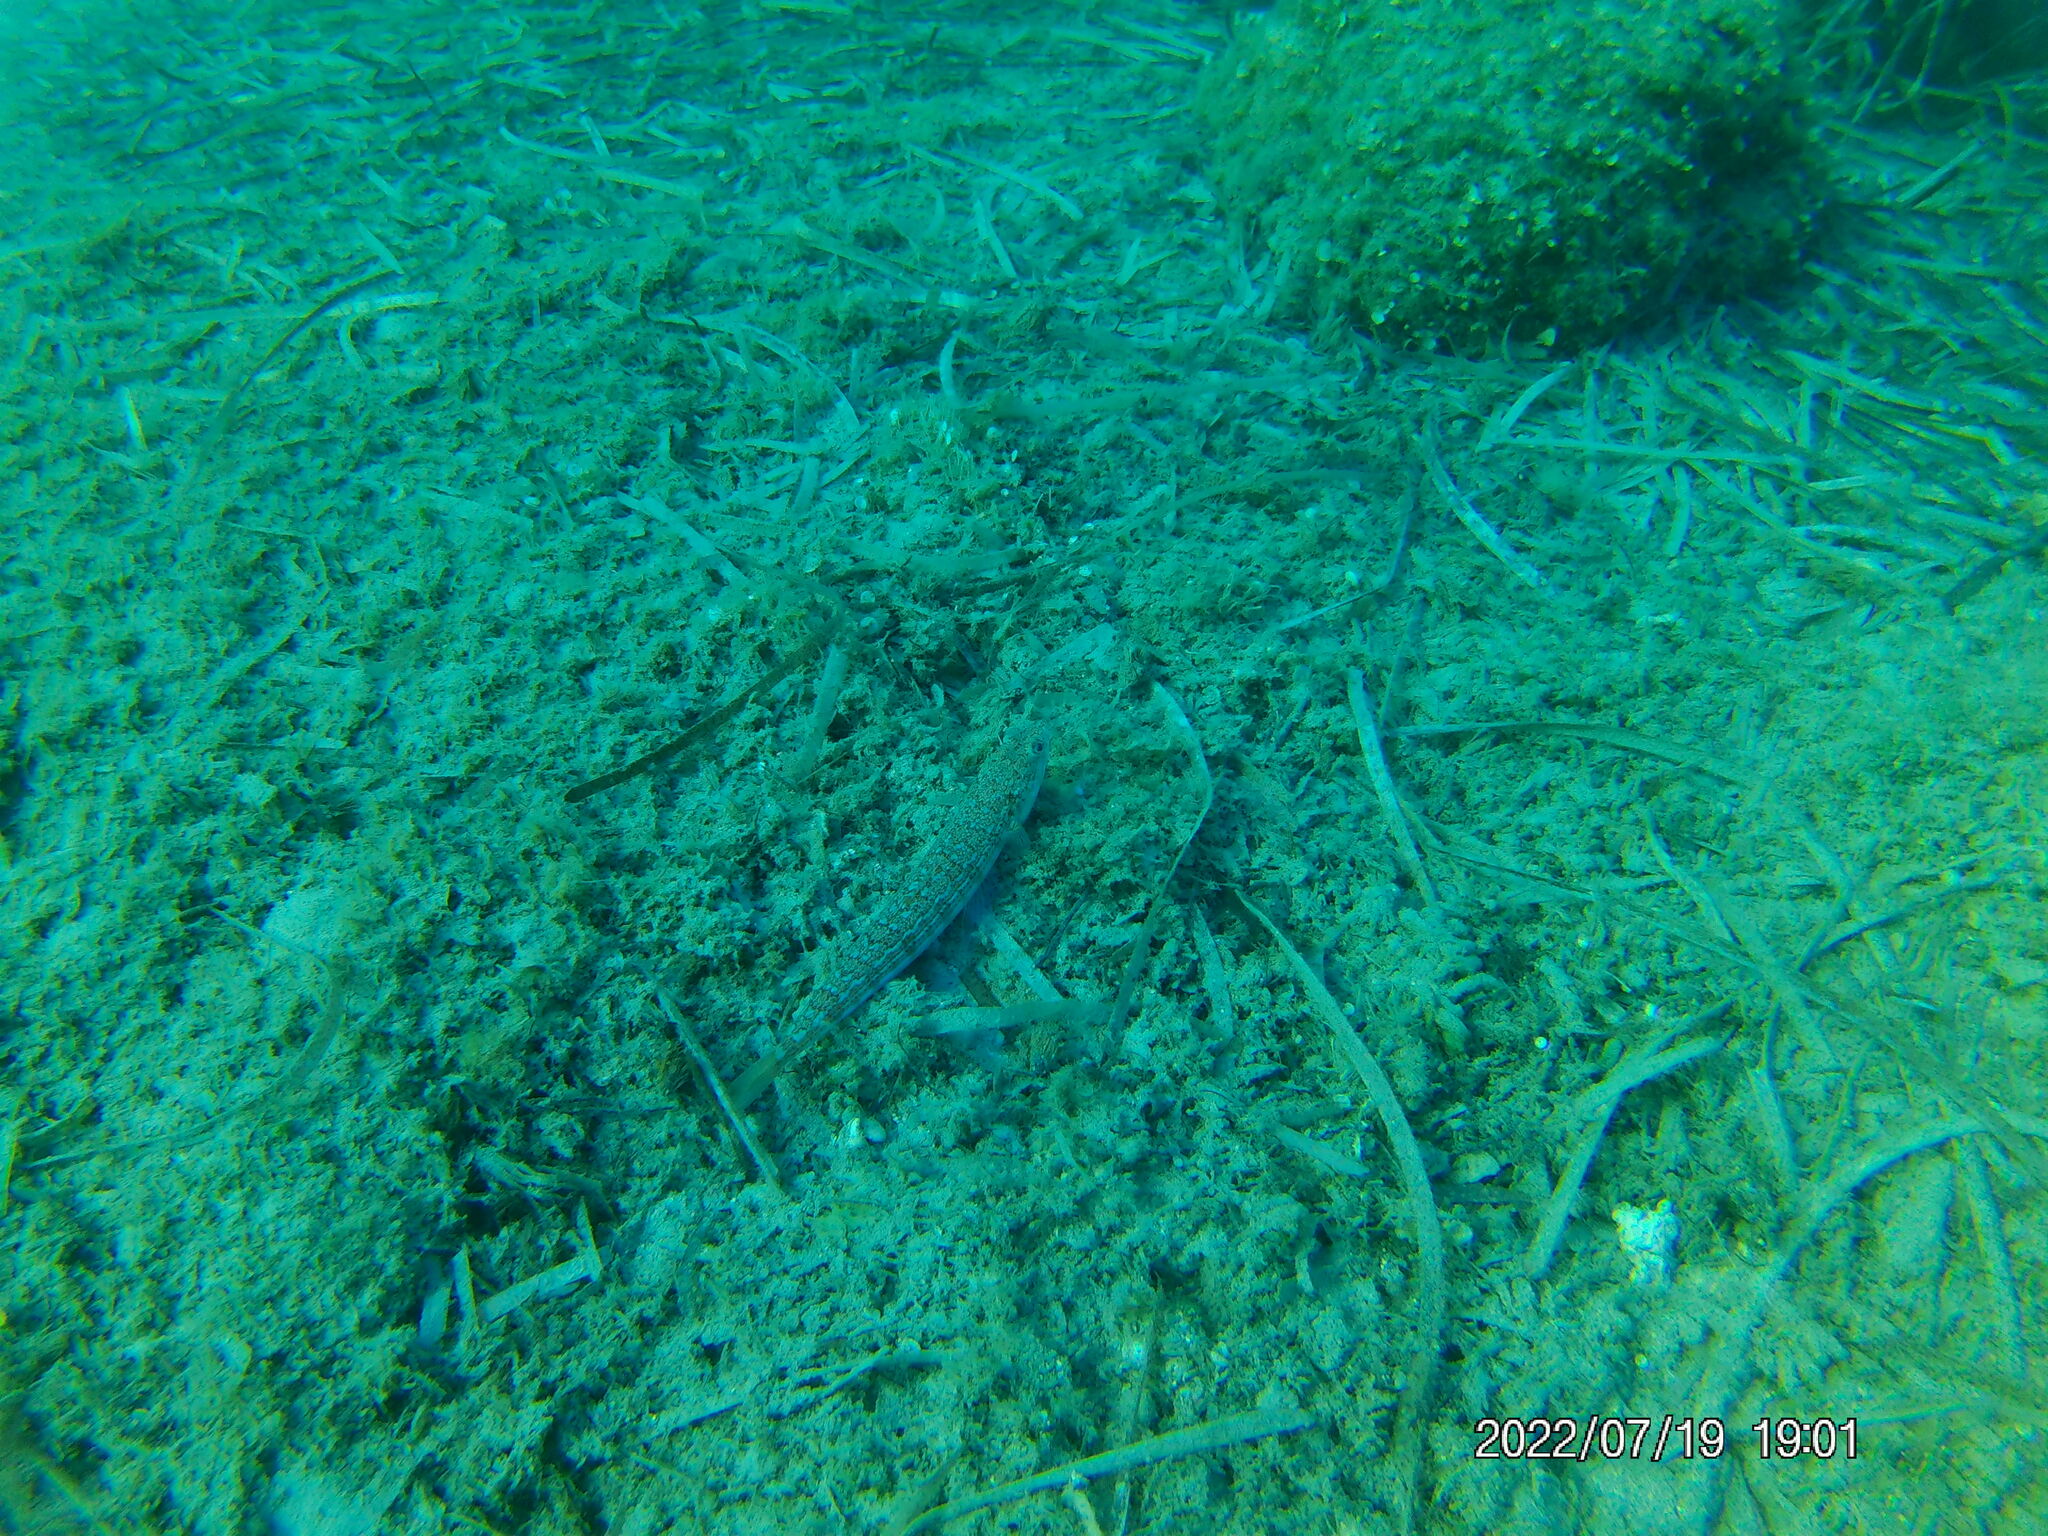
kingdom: Animalia
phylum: Chordata
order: Aulopiformes
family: Synodontidae
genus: Synodus
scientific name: Synodus saurus
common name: Atlantic lizardfish
